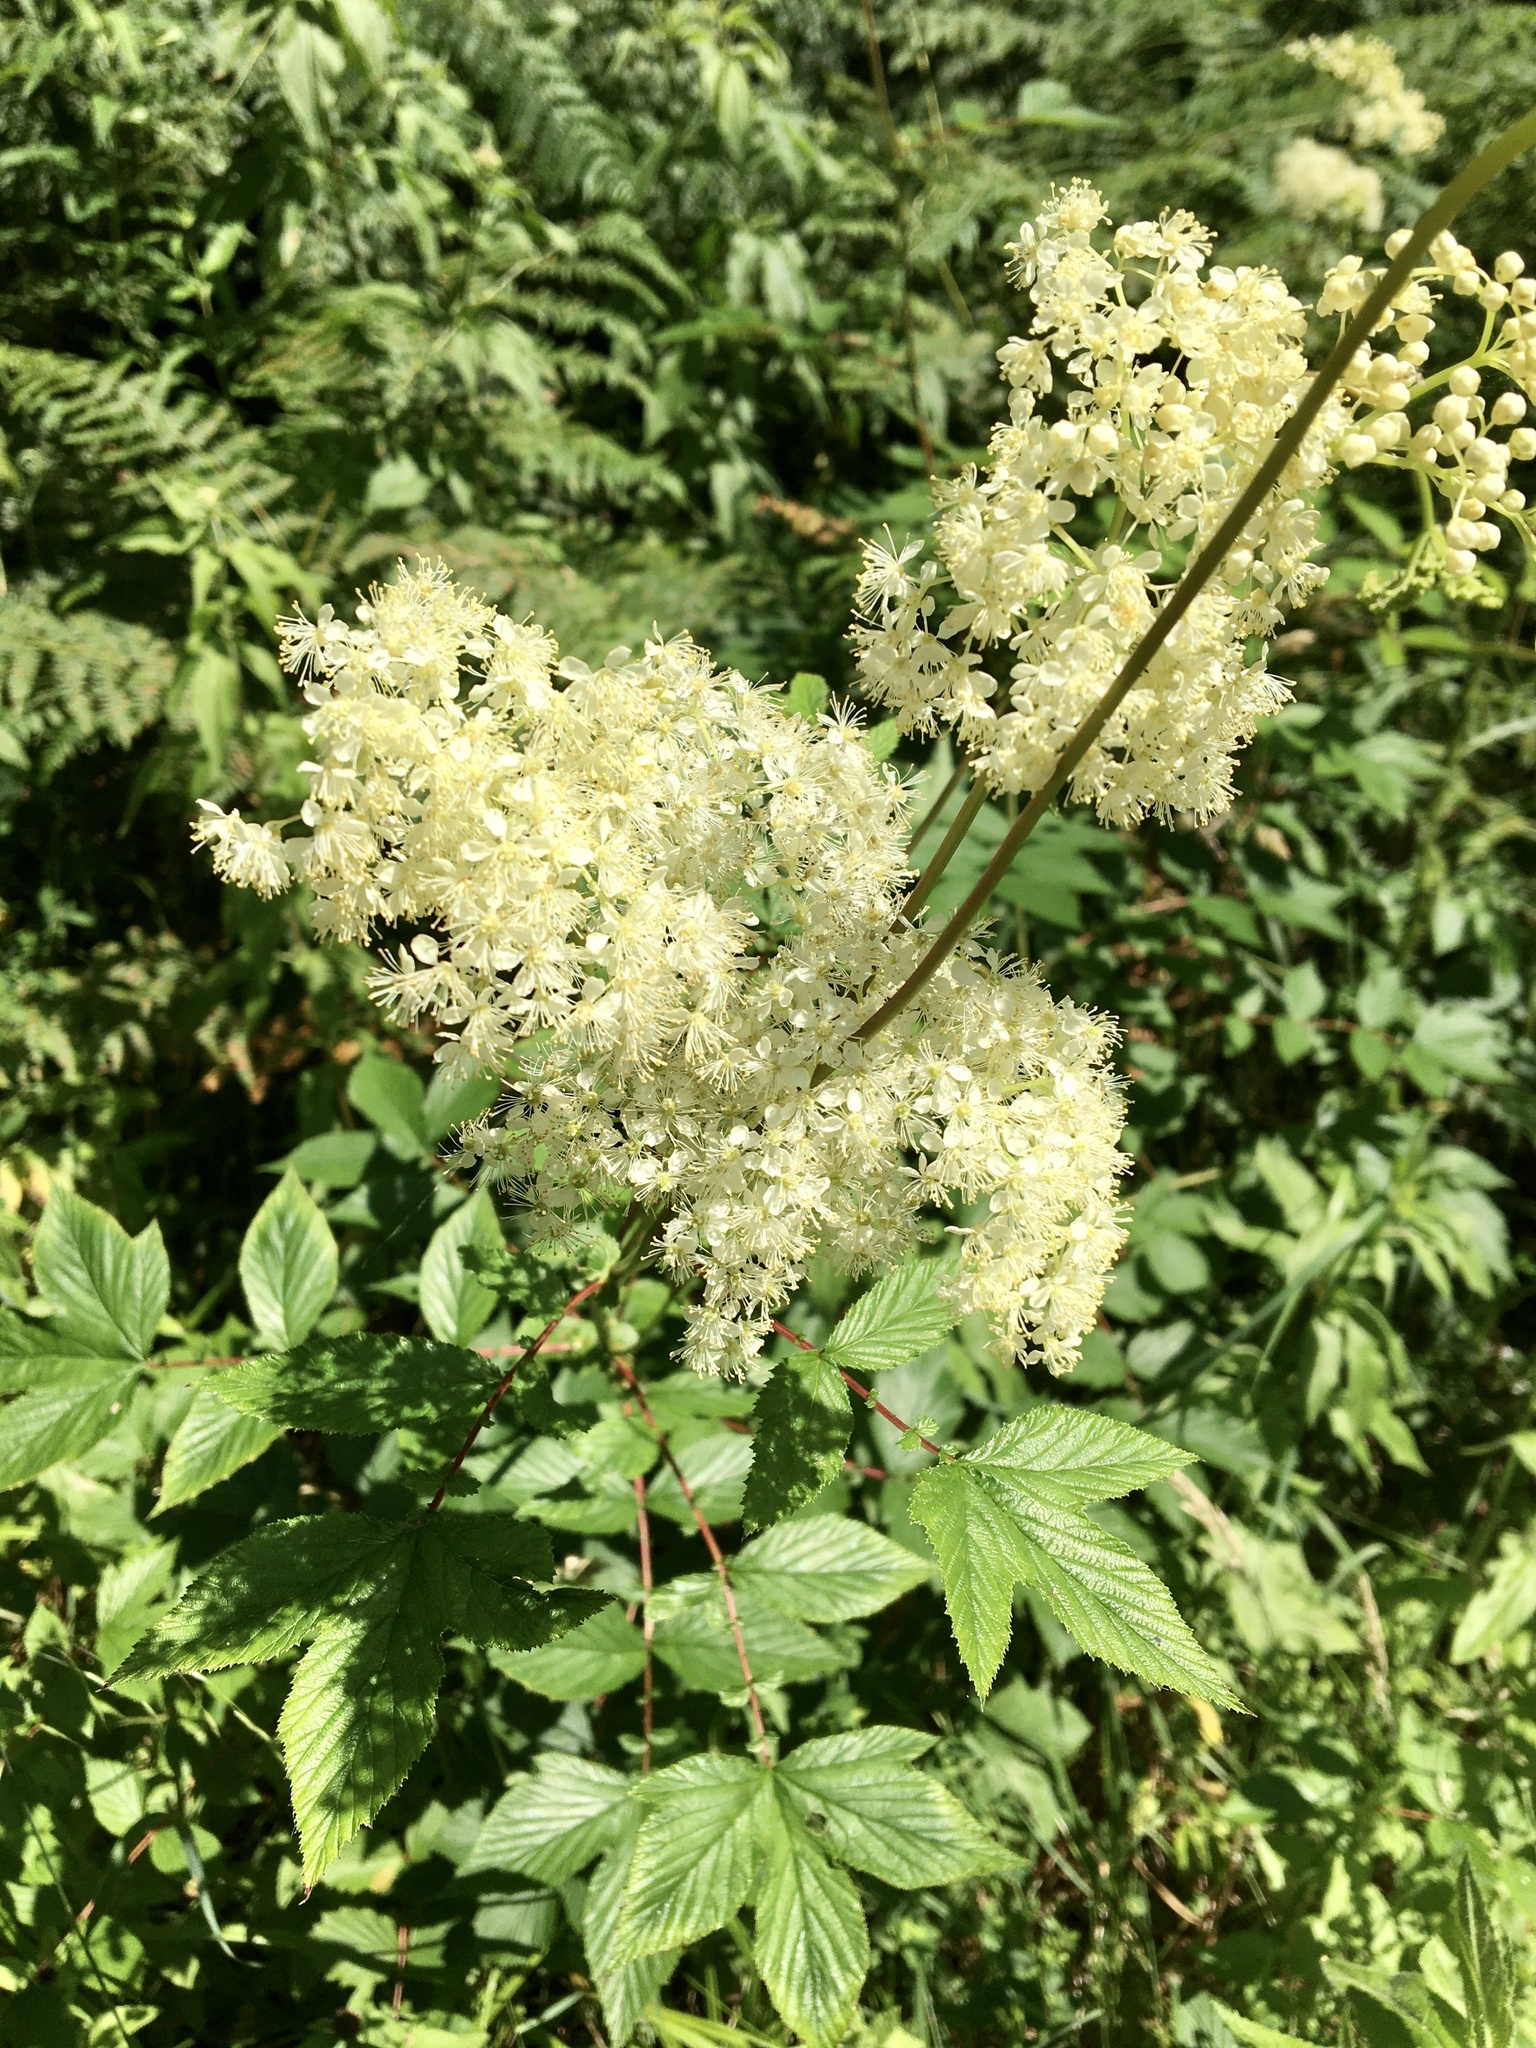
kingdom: Plantae
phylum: Tracheophyta
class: Magnoliopsida
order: Rosales
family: Rosaceae
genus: Filipendula
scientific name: Filipendula ulmaria
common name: Meadowsweet
